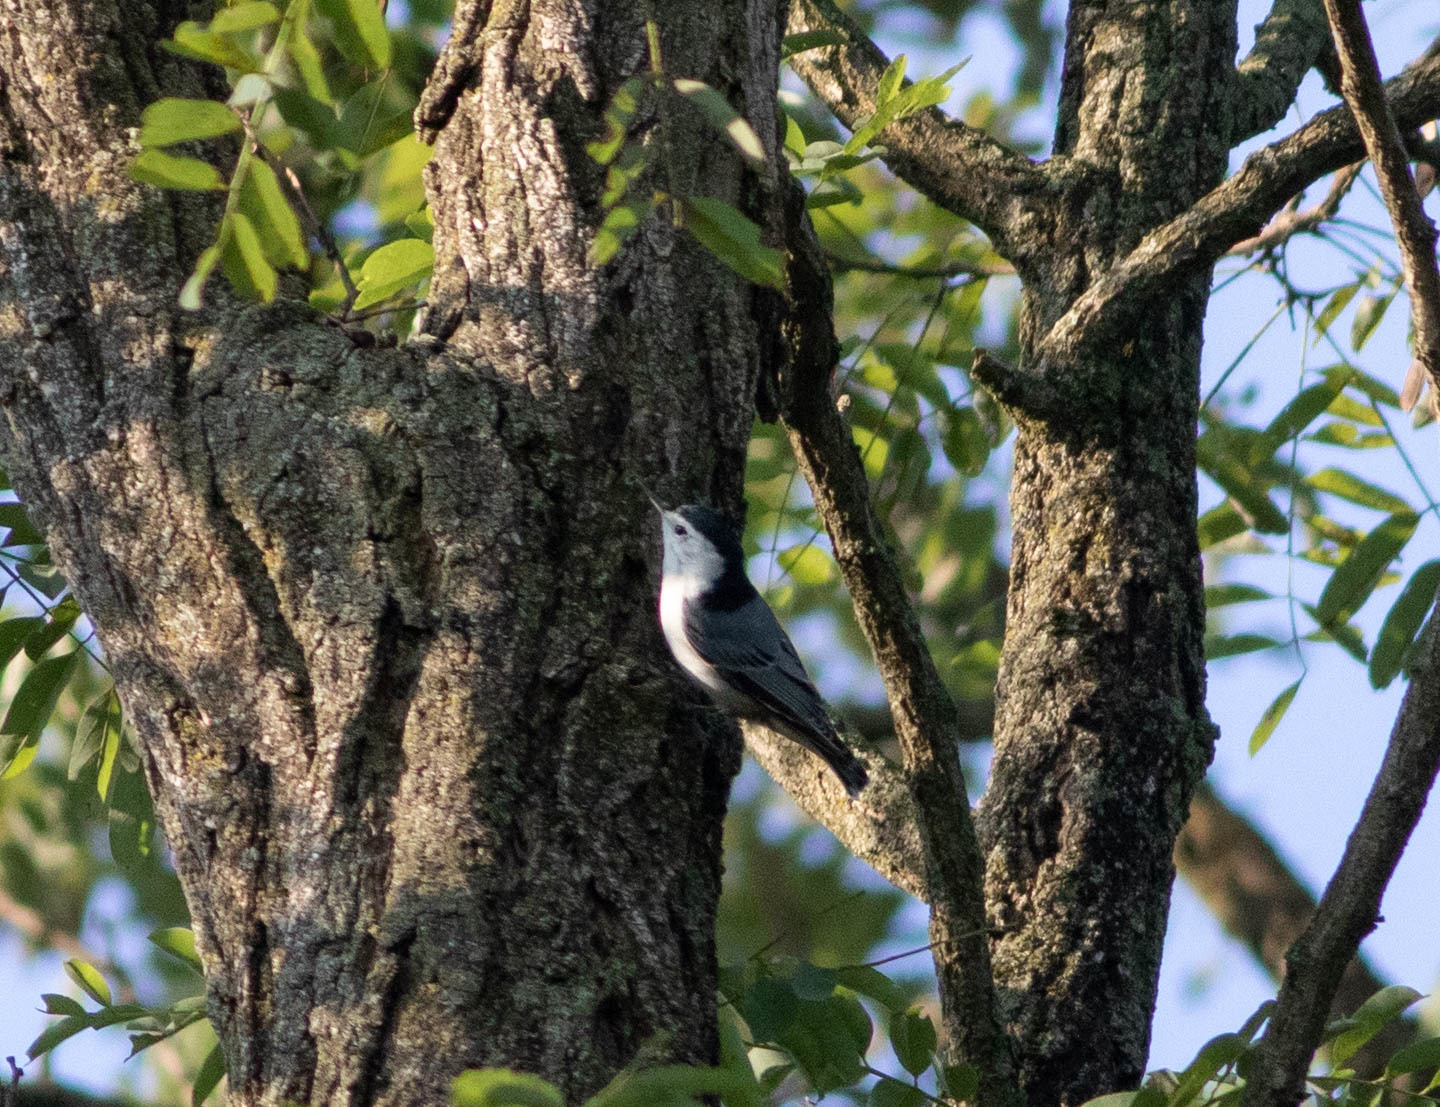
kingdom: Animalia
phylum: Chordata
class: Aves
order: Passeriformes
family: Sittidae
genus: Sitta
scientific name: Sitta carolinensis
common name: White-breasted nuthatch
